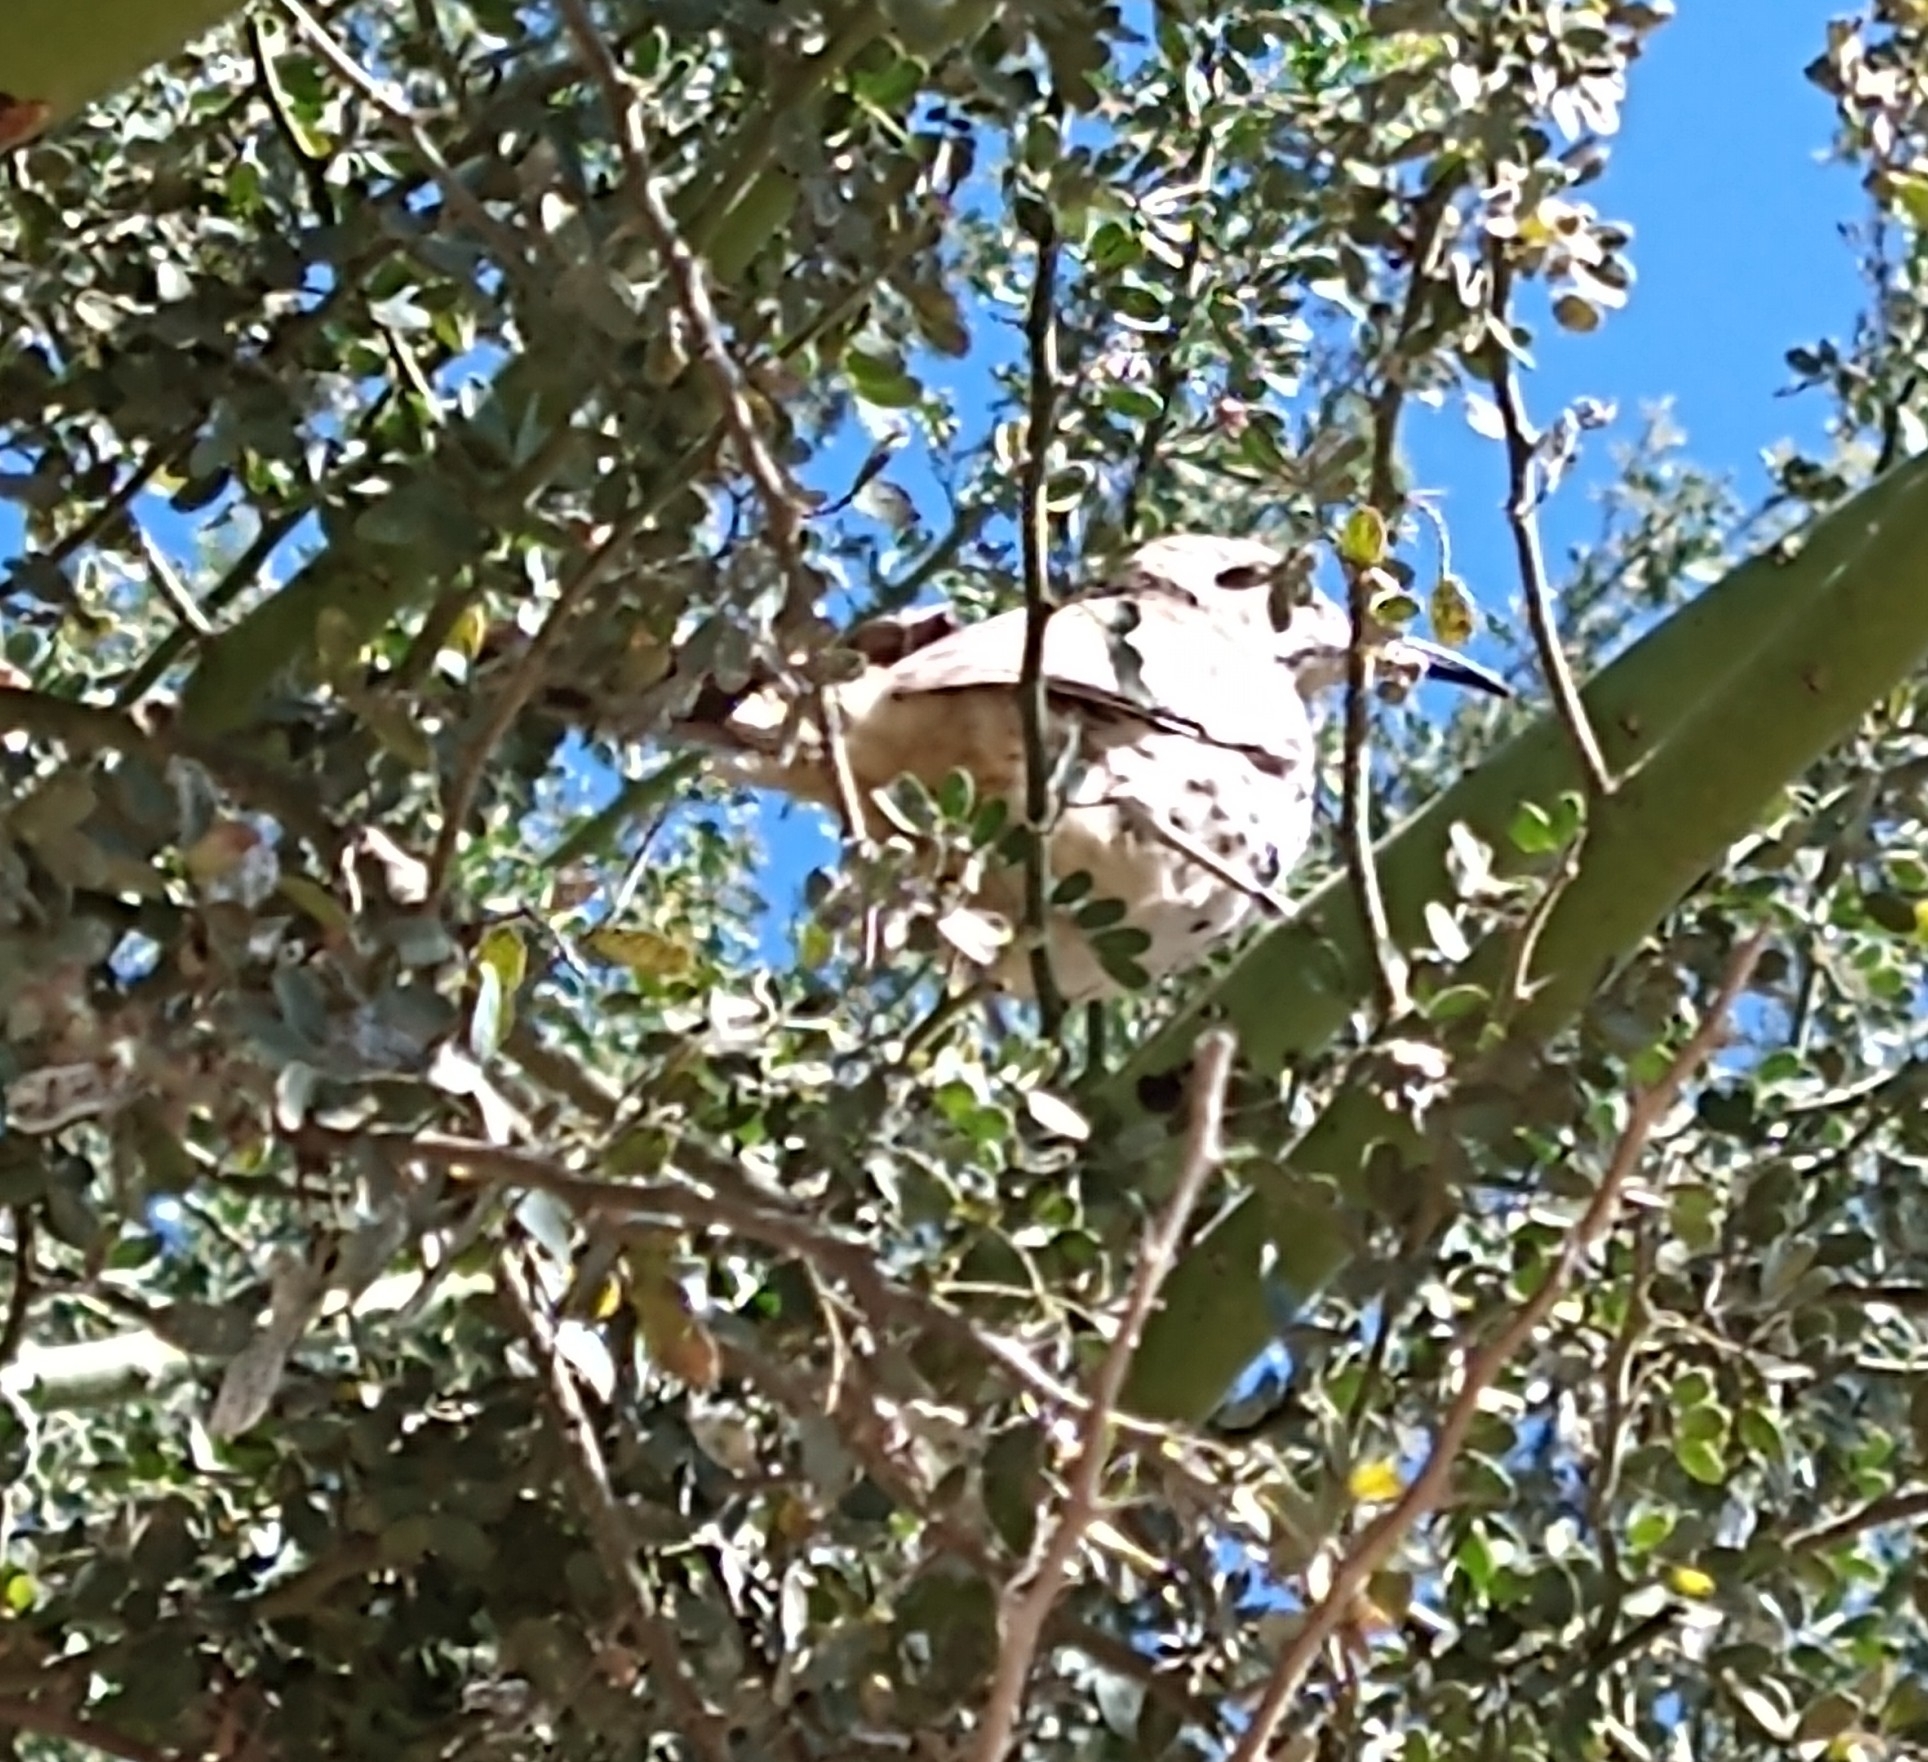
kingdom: Animalia
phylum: Chordata
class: Aves
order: Passeriformes
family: Mimidae
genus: Toxostoma
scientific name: Toxostoma cinereum
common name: Gray thrasher
